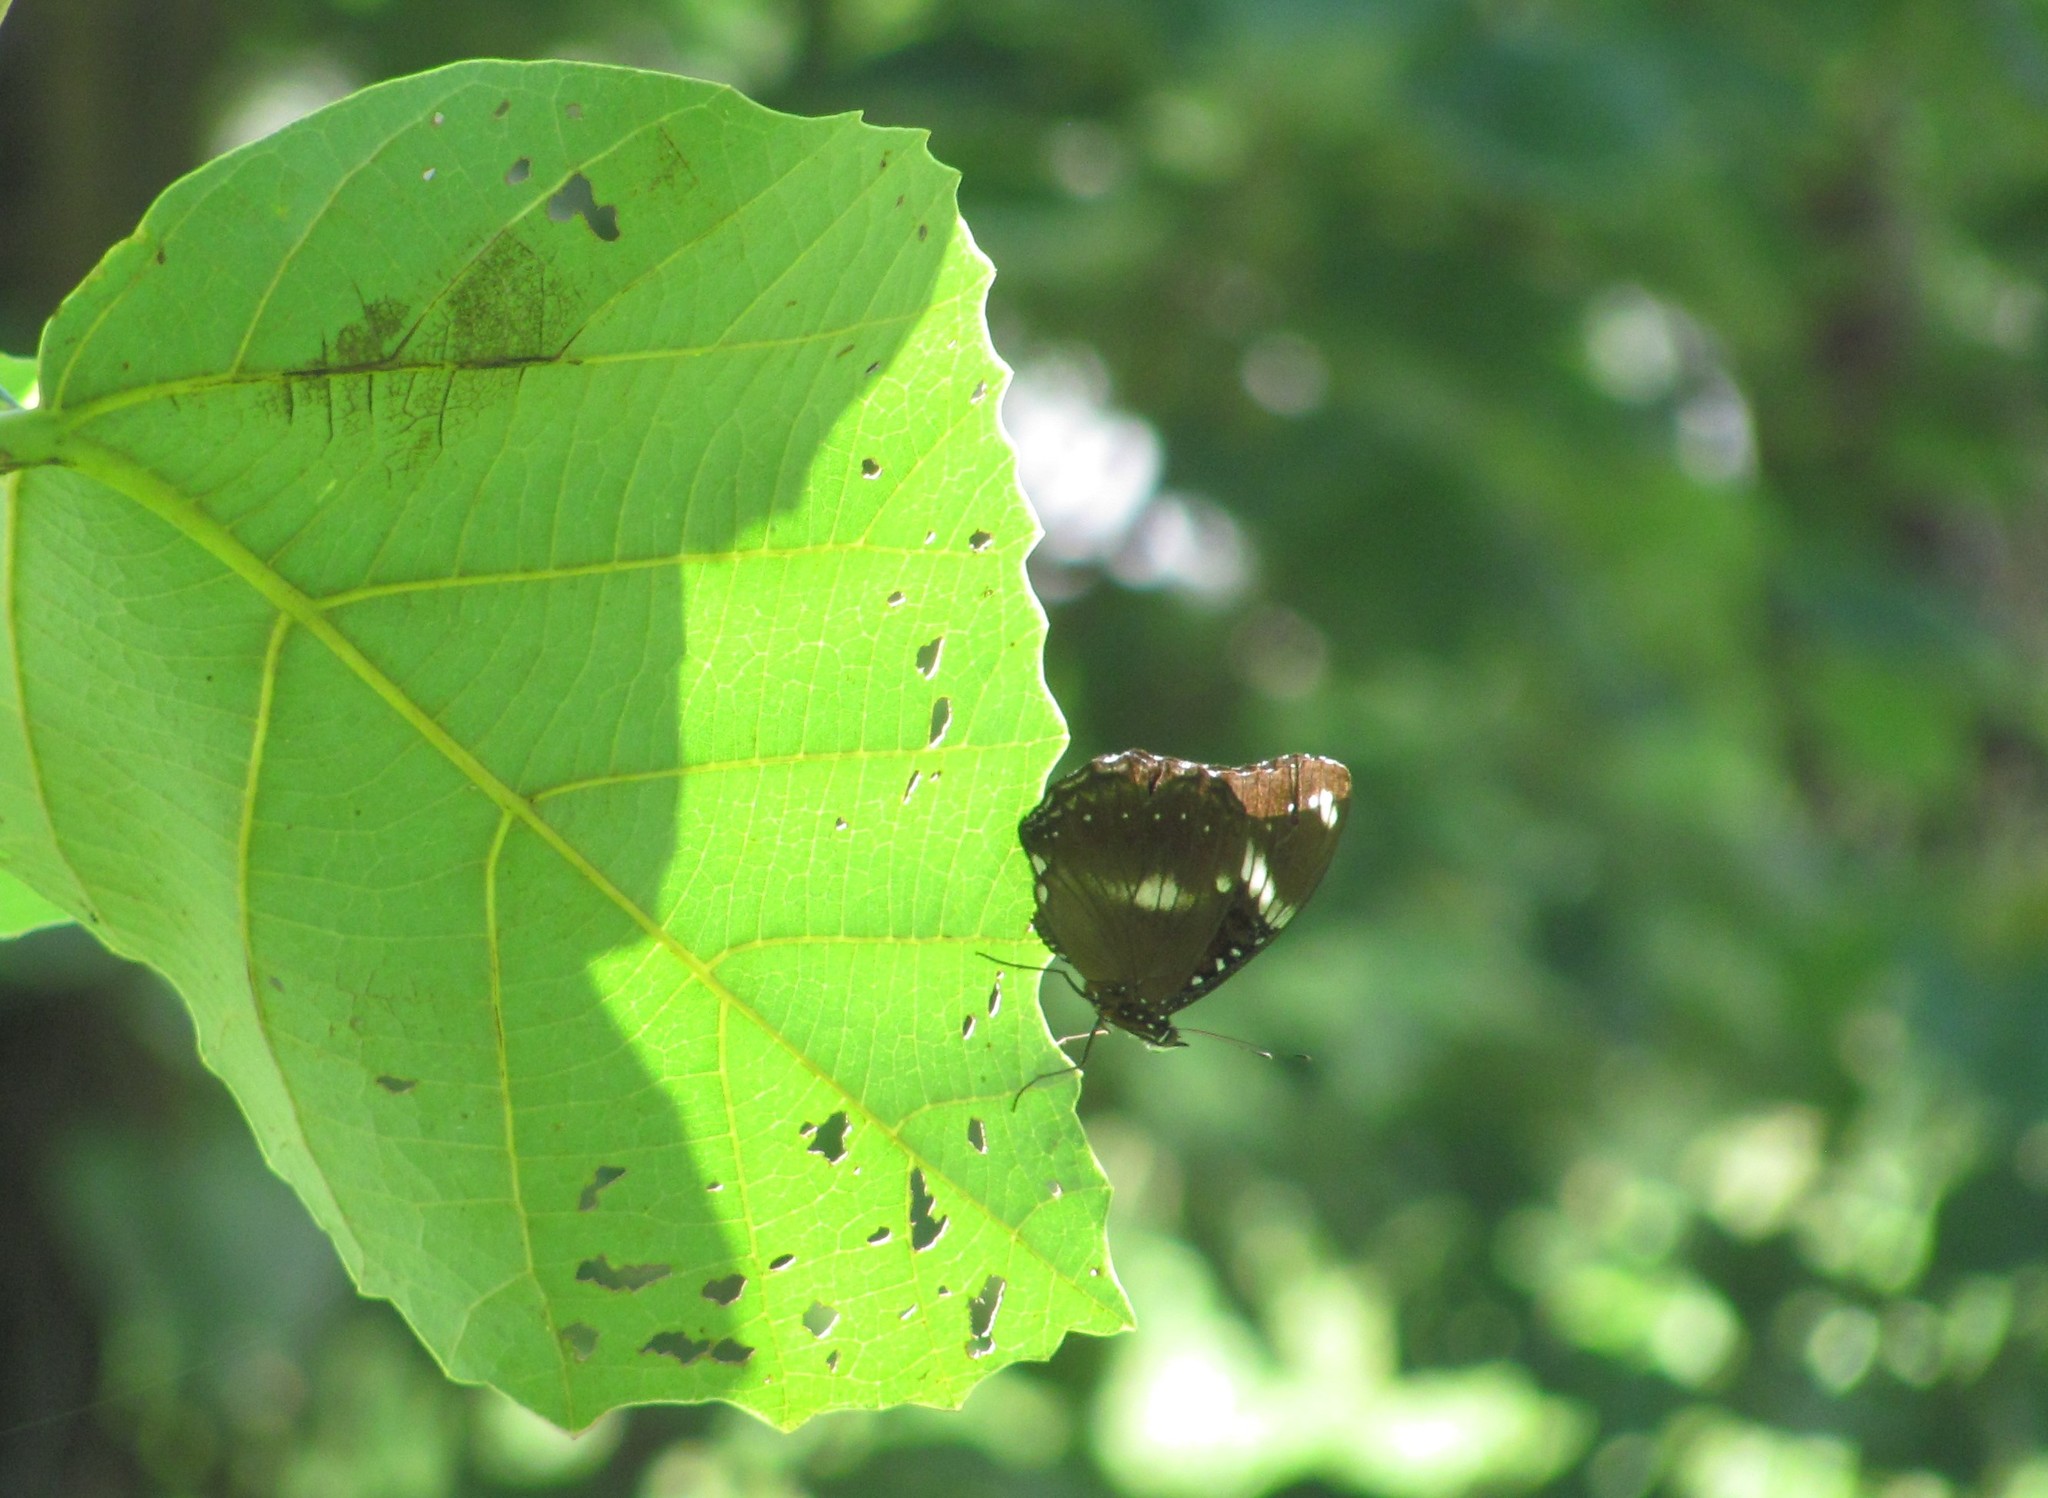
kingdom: Animalia
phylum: Arthropoda
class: Insecta
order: Lepidoptera
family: Nymphalidae
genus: Hypolimnas
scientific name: Hypolimnas bolina
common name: Great eggfly
